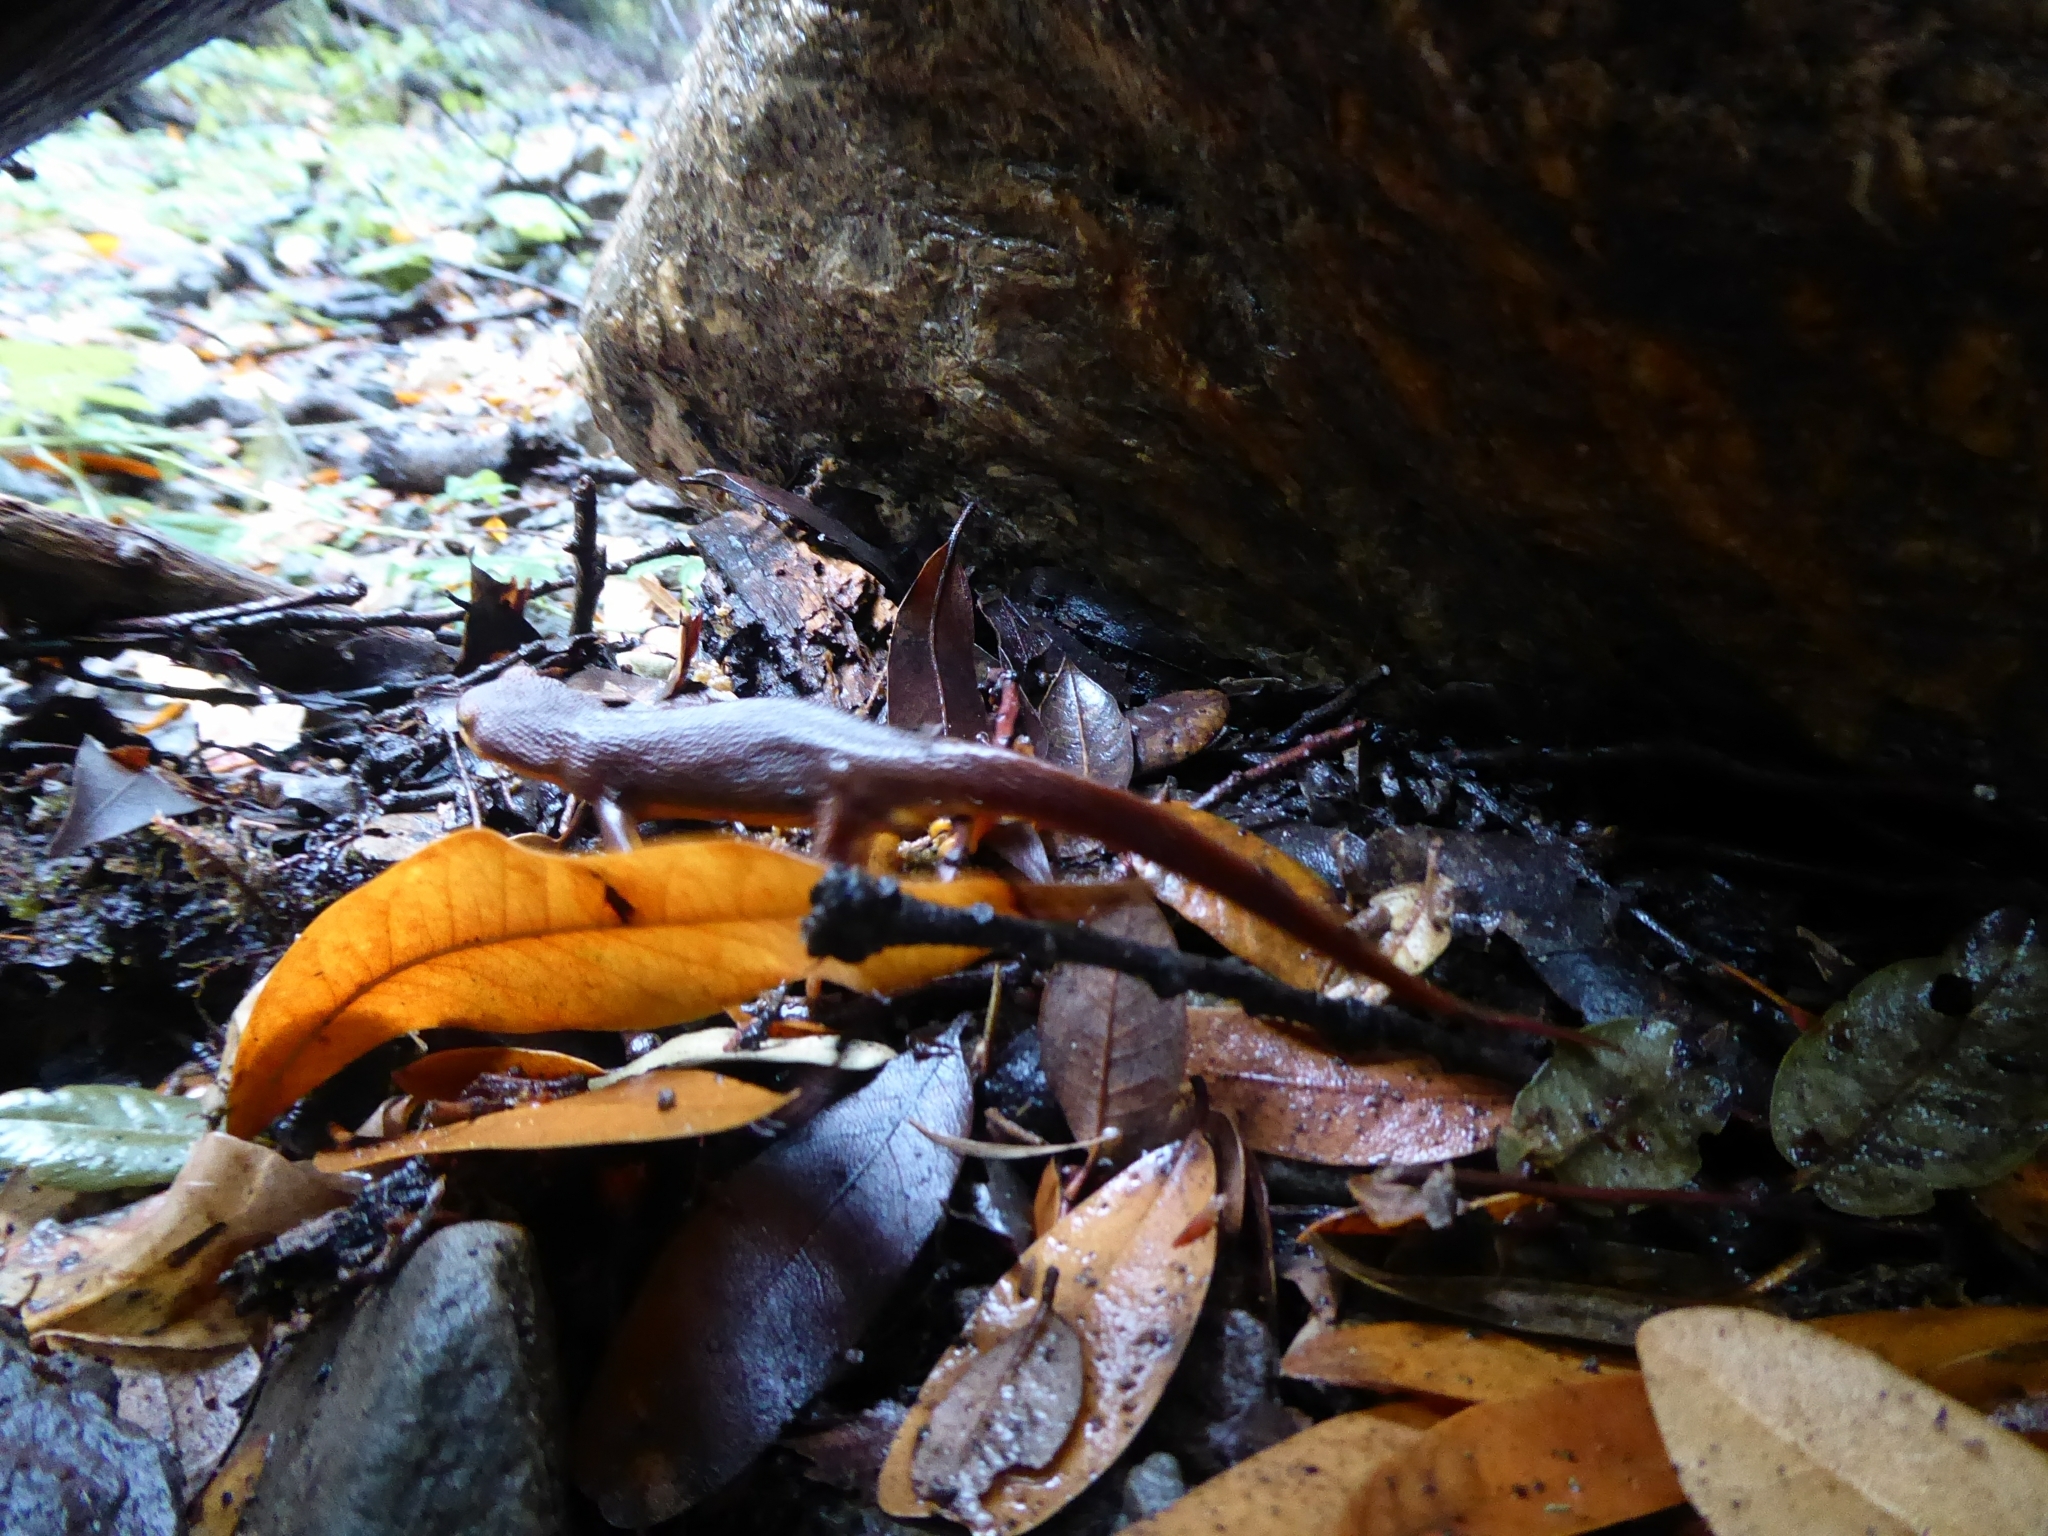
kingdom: Animalia
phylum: Chordata
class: Amphibia
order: Caudata
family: Salamandridae
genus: Taricha
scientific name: Taricha torosa
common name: California newt
